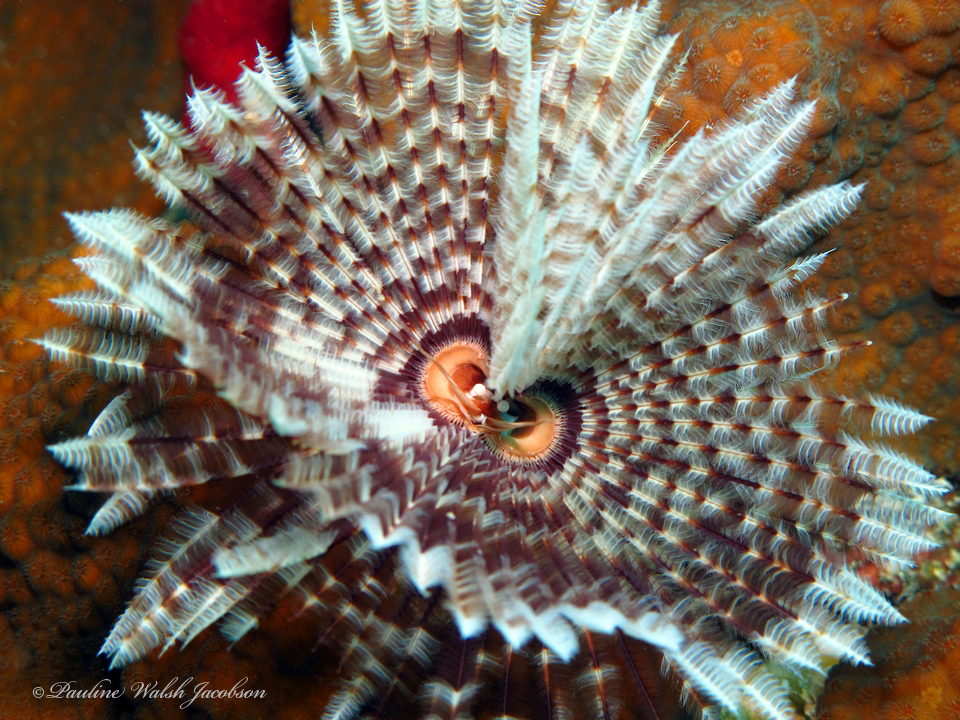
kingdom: Animalia
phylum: Annelida
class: Polychaeta
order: Sabellida
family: Sabellidae
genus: Sabellastarte
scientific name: Sabellastarte magnifica
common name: Giant feather-duster worm
